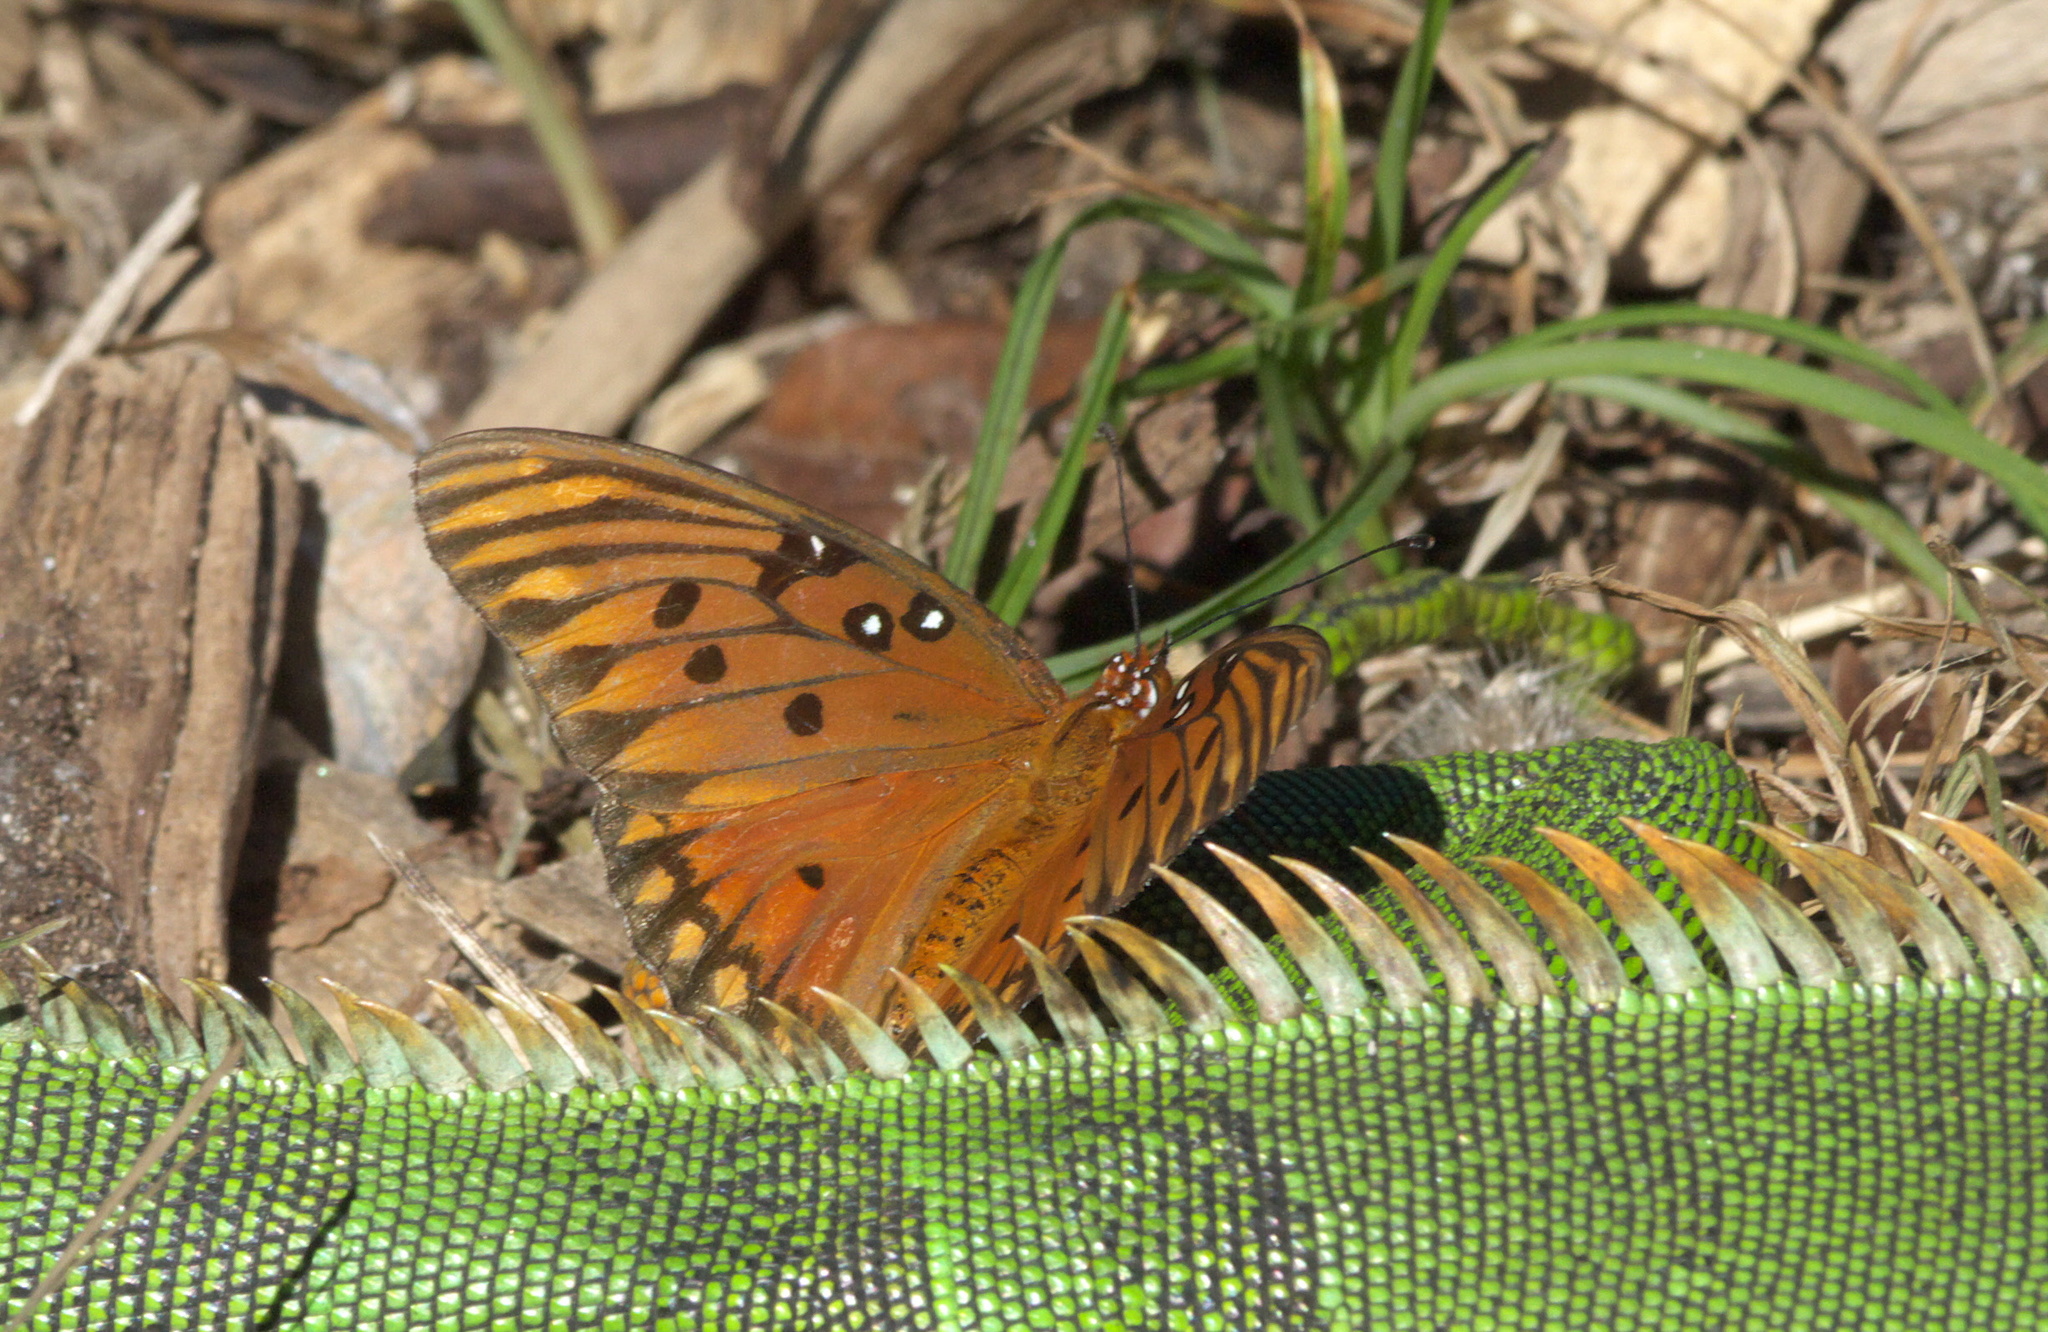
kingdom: Animalia
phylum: Arthropoda
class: Insecta
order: Lepidoptera
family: Nymphalidae
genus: Dione
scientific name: Dione vanillae
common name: Gulf fritillary
